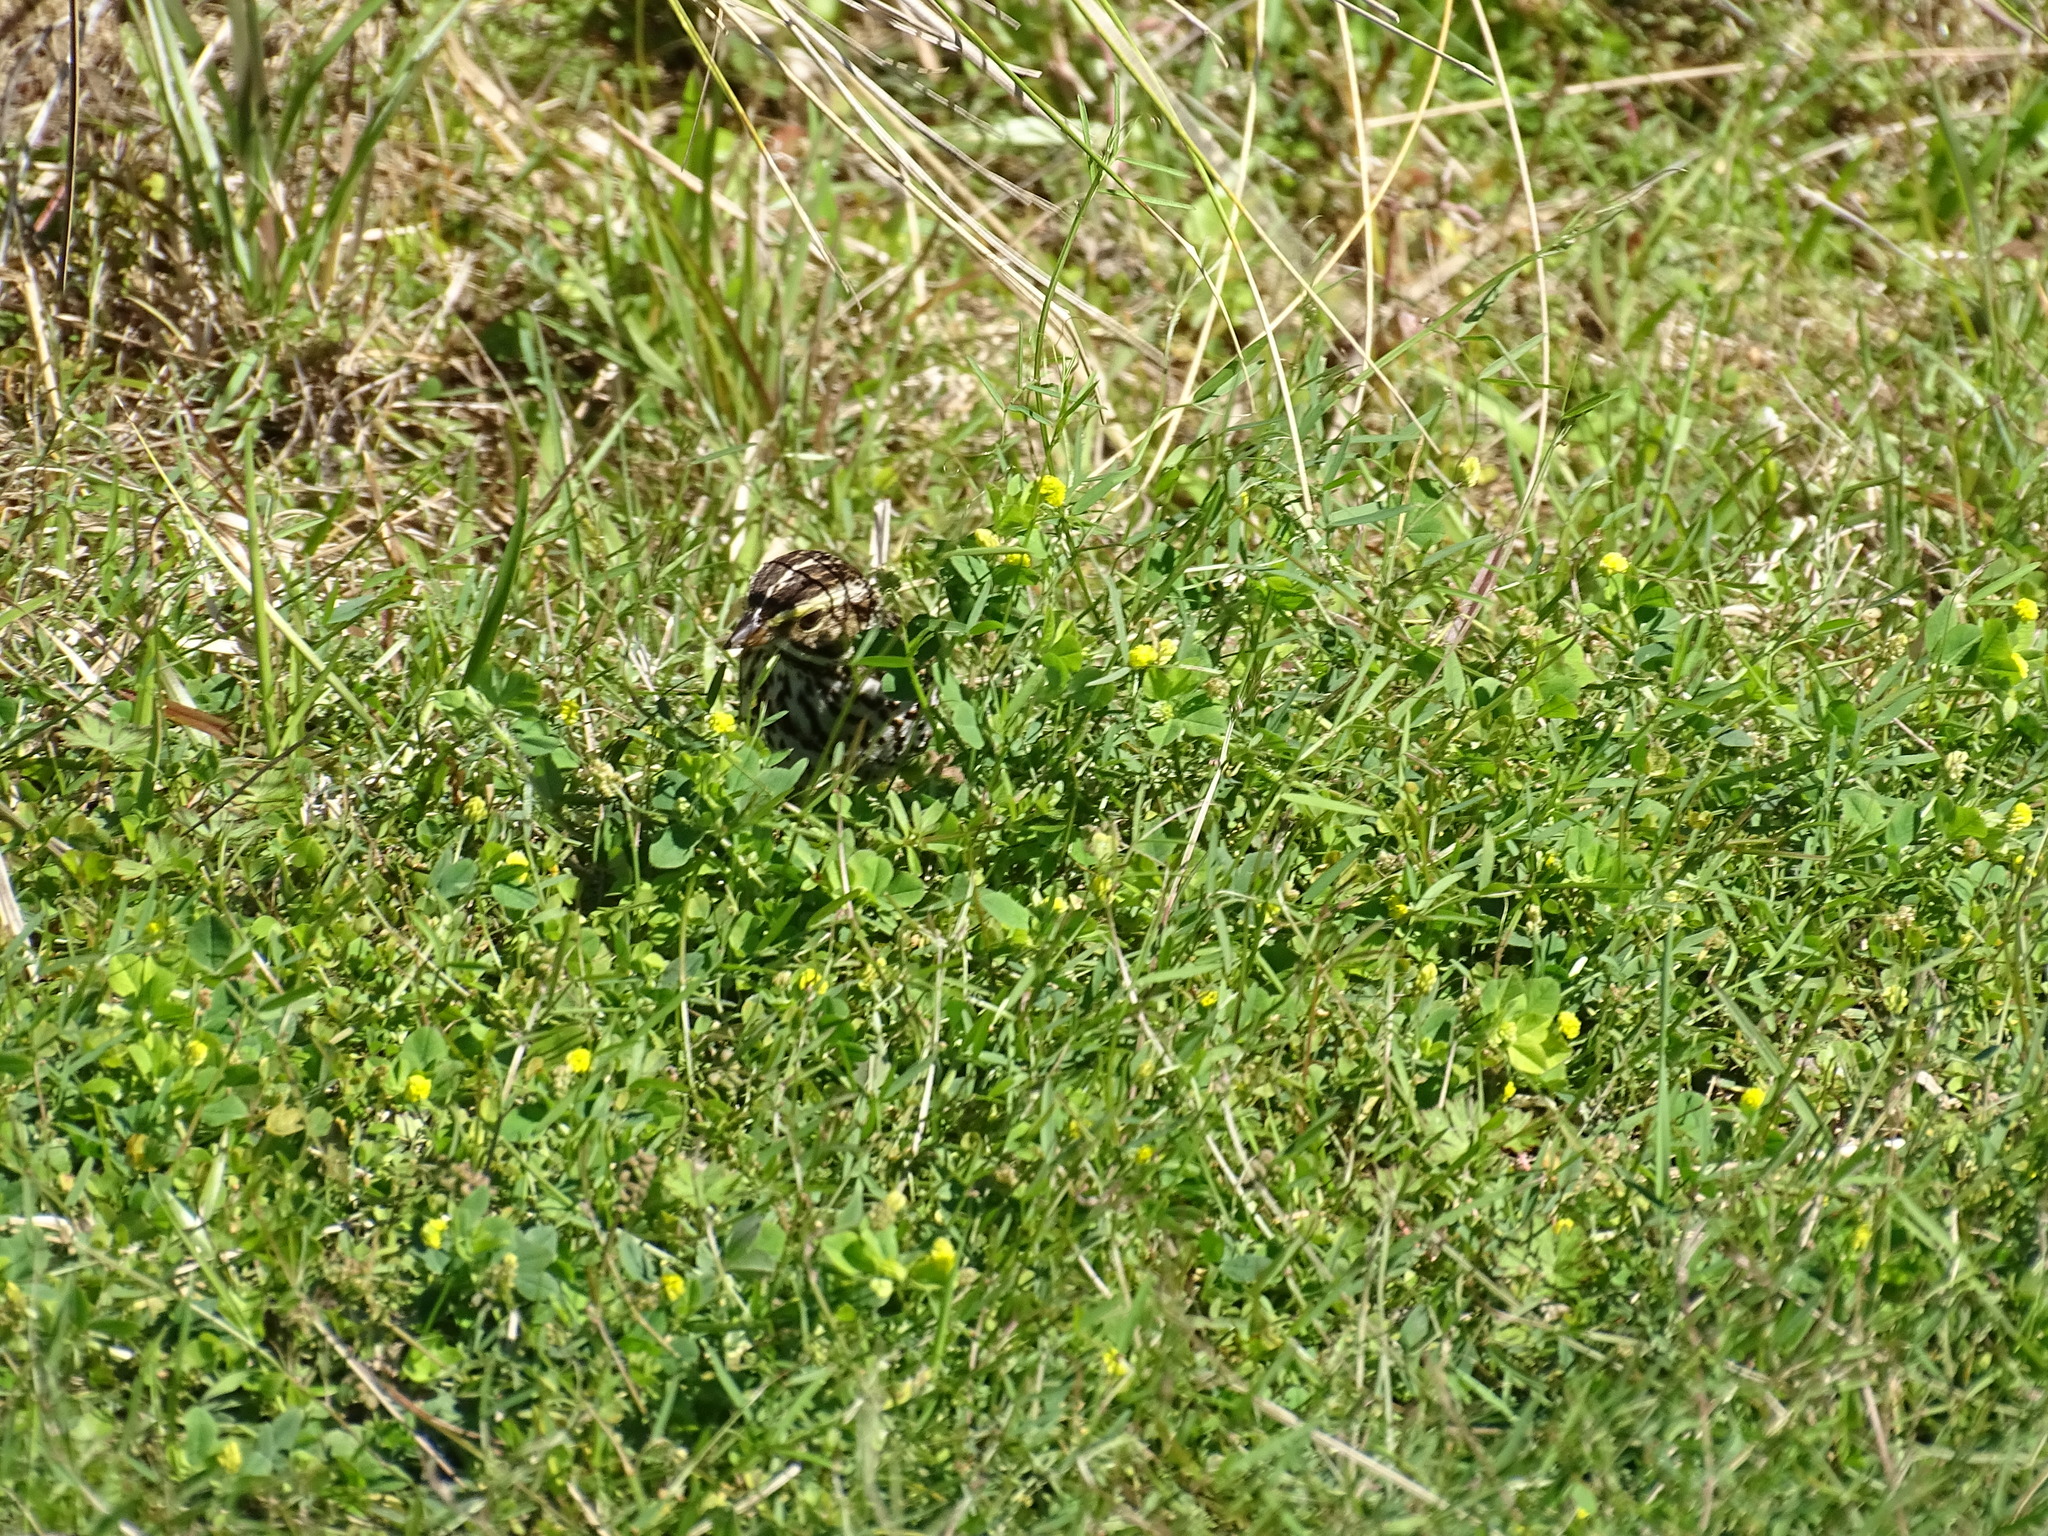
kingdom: Animalia
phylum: Chordata
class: Aves
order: Passeriformes
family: Passerellidae
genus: Passerculus
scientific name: Passerculus sandwichensis
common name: Savannah sparrow
